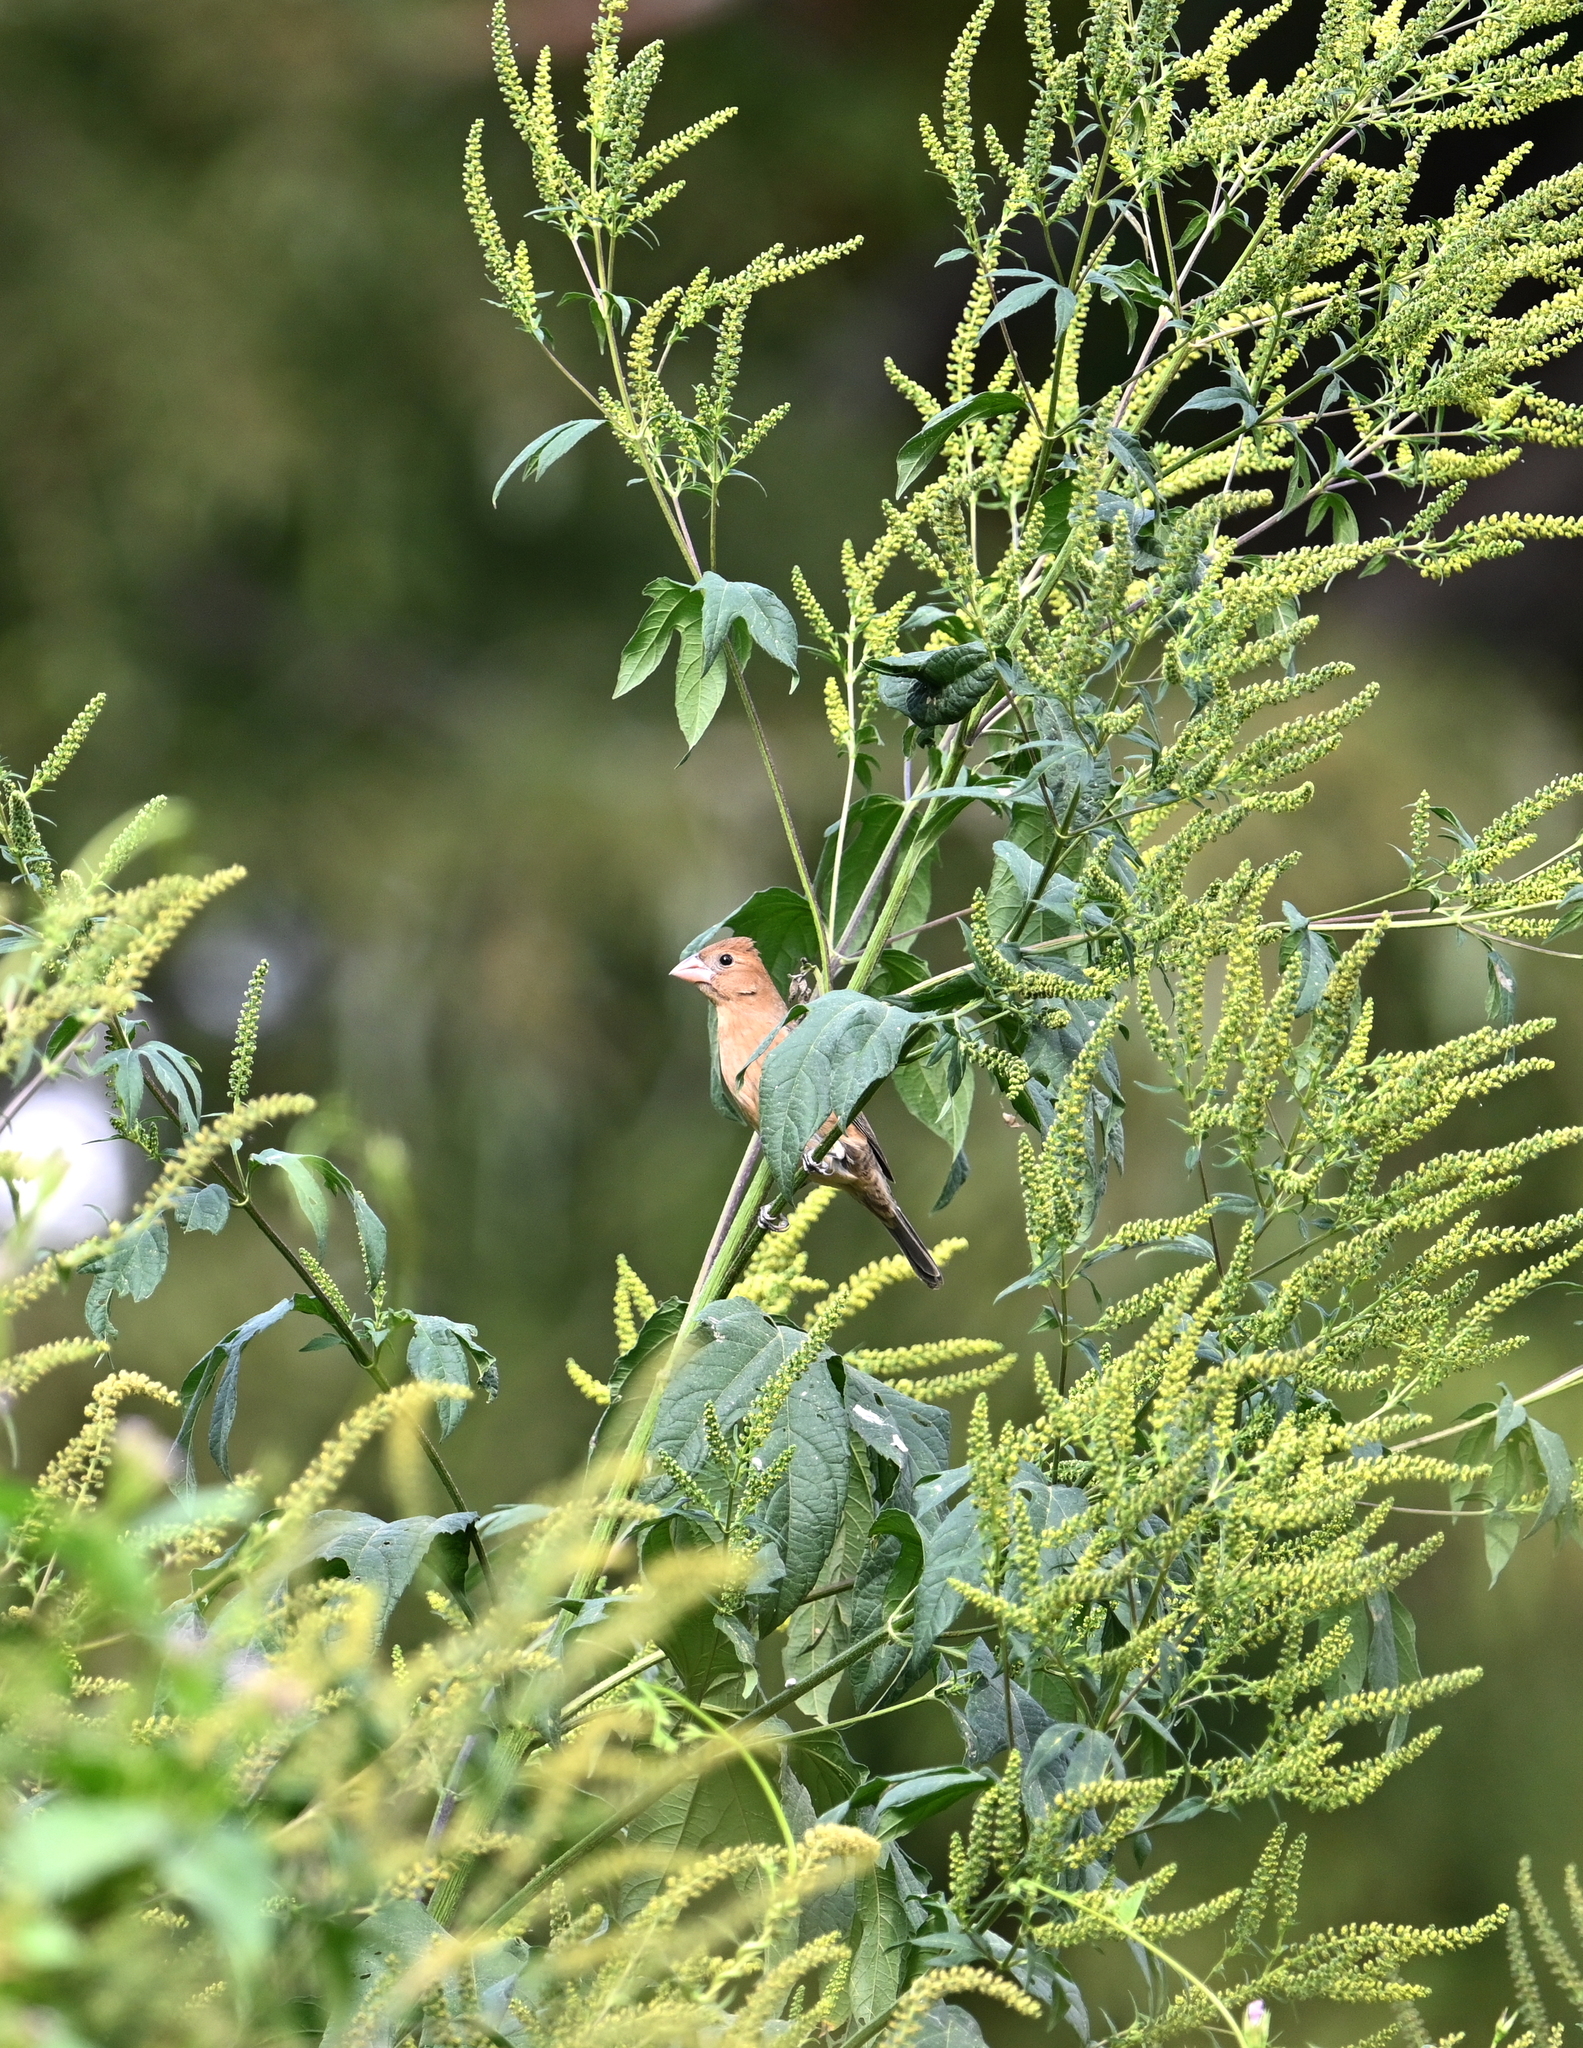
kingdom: Animalia
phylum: Chordata
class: Aves
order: Passeriformes
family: Cardinalidae
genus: Passerina
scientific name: Passerina caerulea
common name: Blue grosbeak
